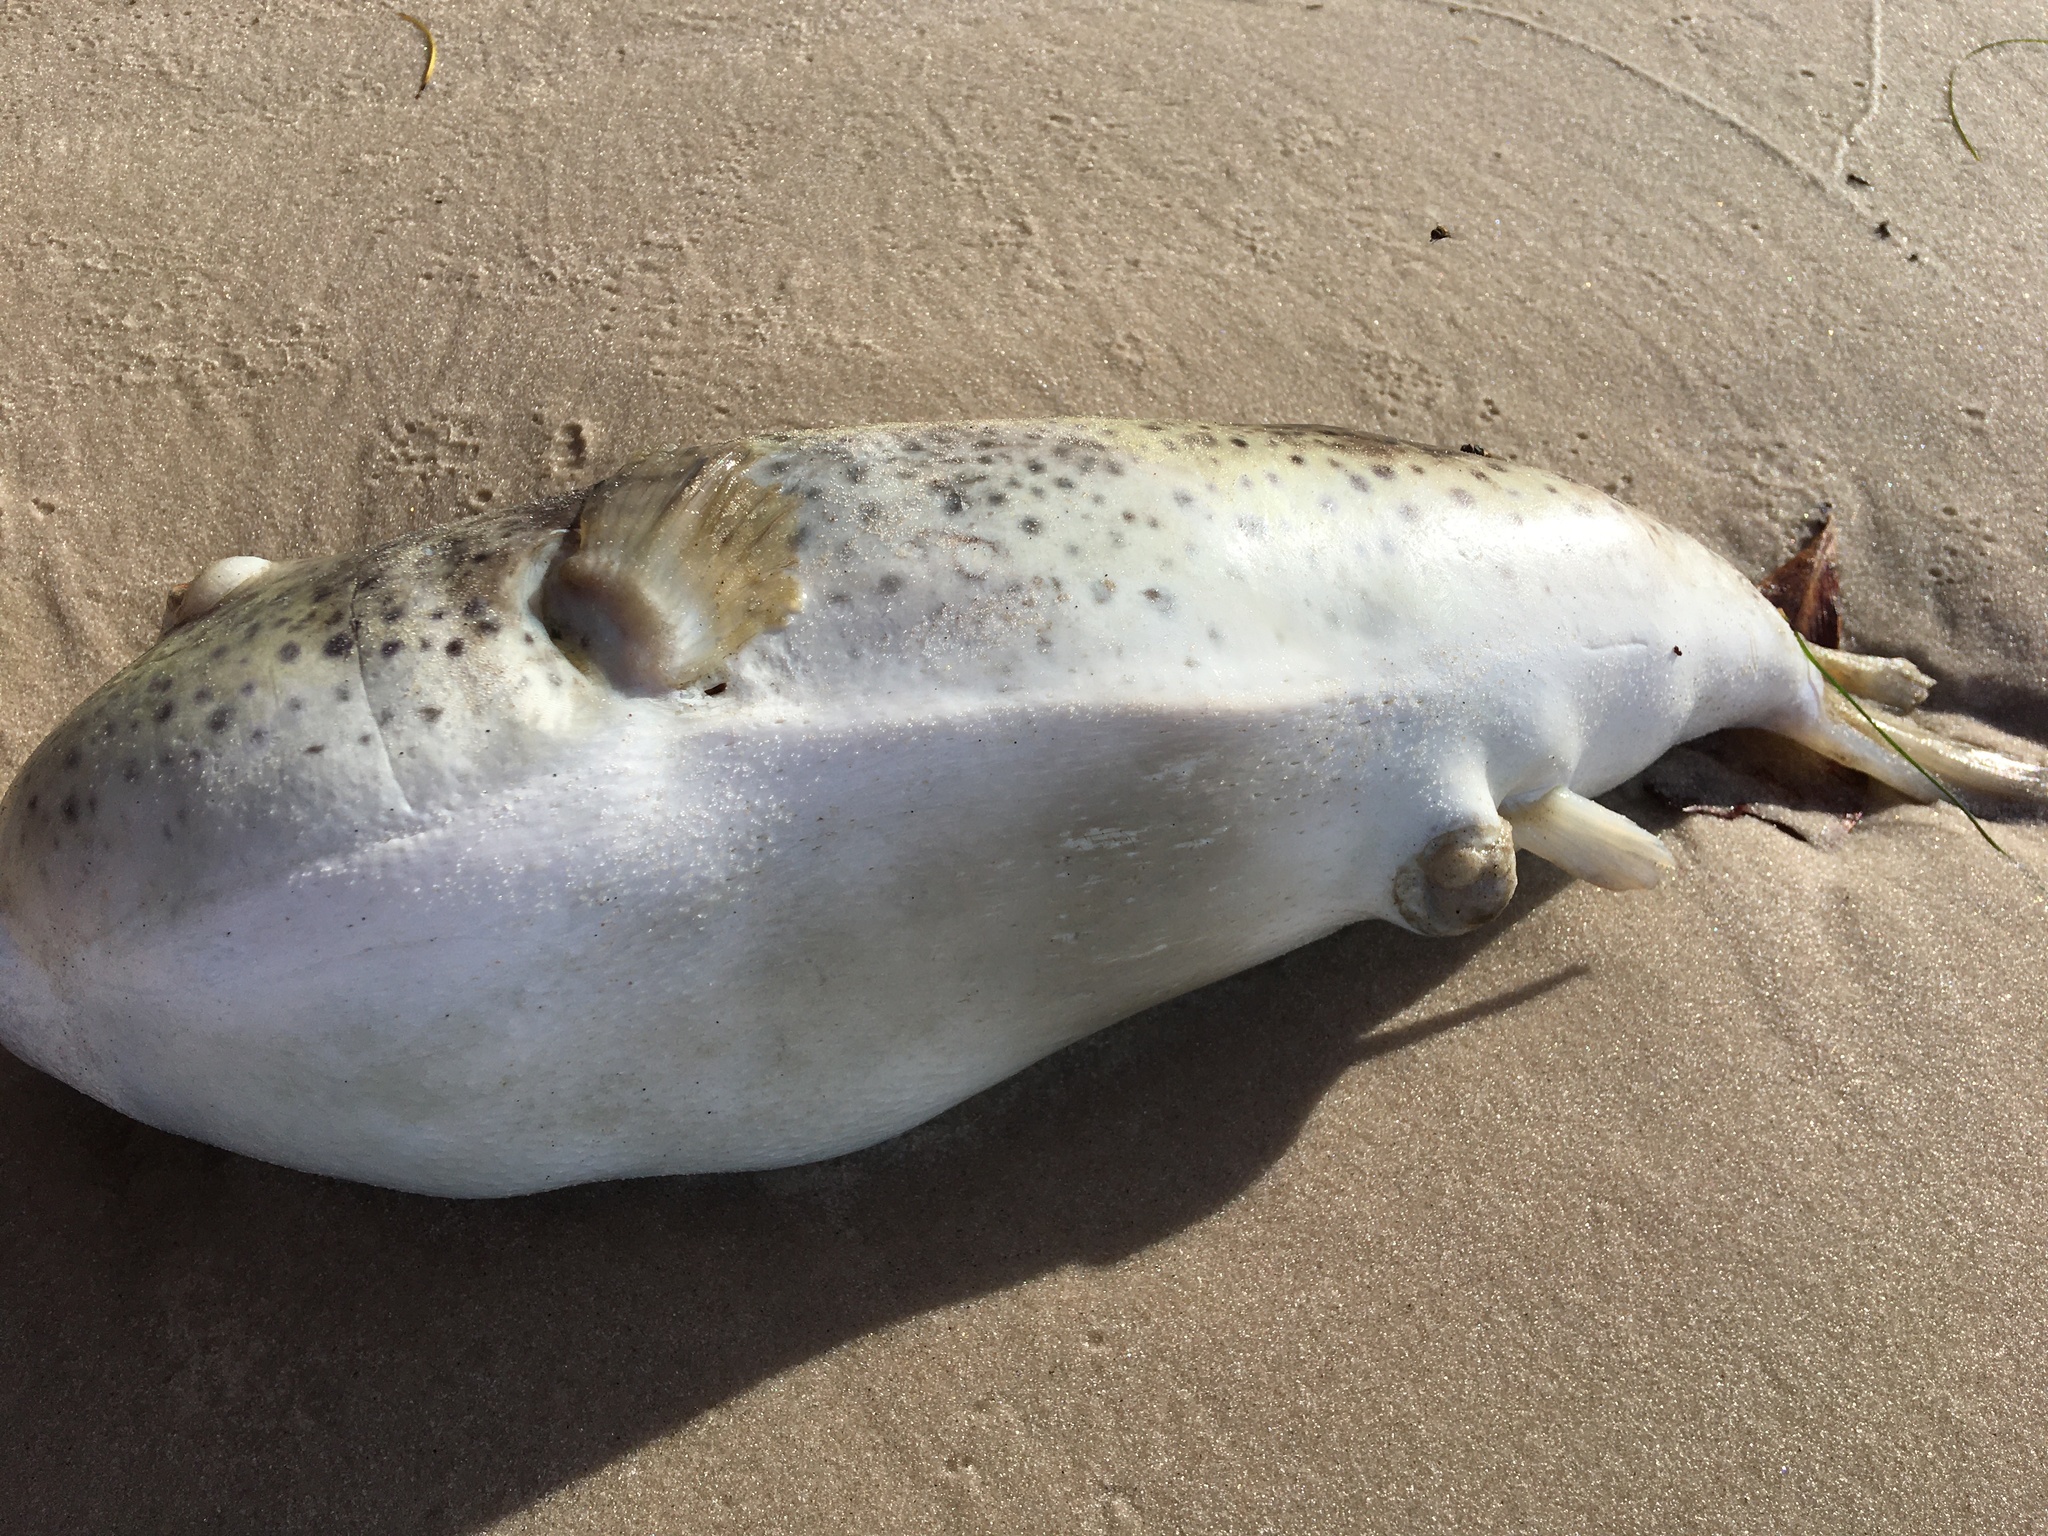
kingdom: Animalia
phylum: Chordata
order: Tetraodontiformes
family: Tetraodontidae
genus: Sphoeroides
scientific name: Sphoeroides testudineus
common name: Checkered puffer
